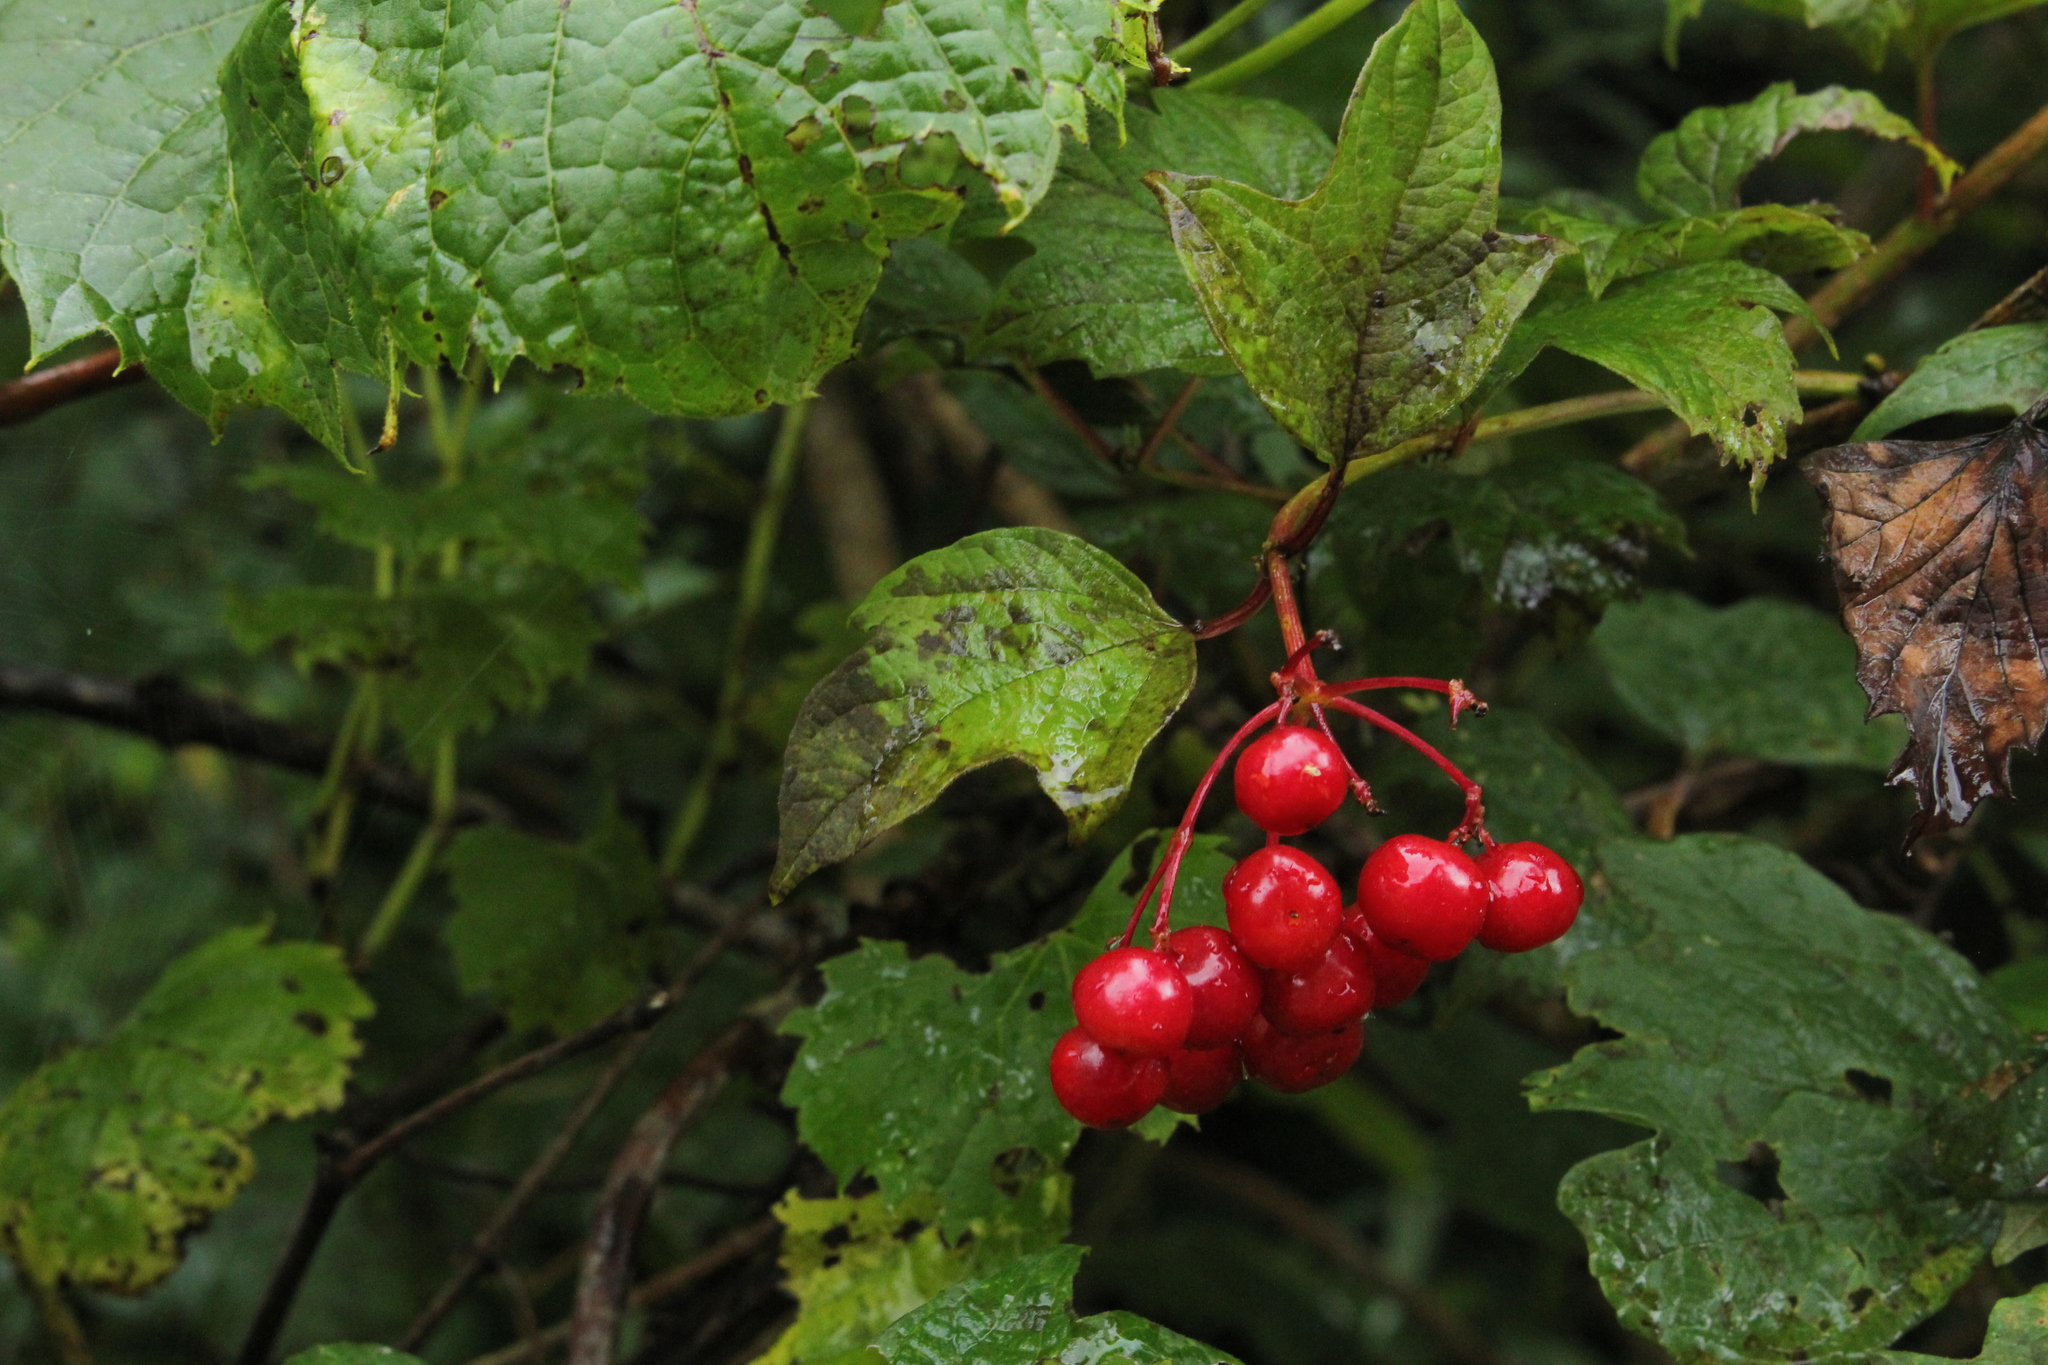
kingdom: Plantae
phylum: Tracheophyta
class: Magnoliopsida
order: Dipsacales
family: Viburnaceae
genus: Viburnum
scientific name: Viburnum opulus
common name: Guelder-rose
